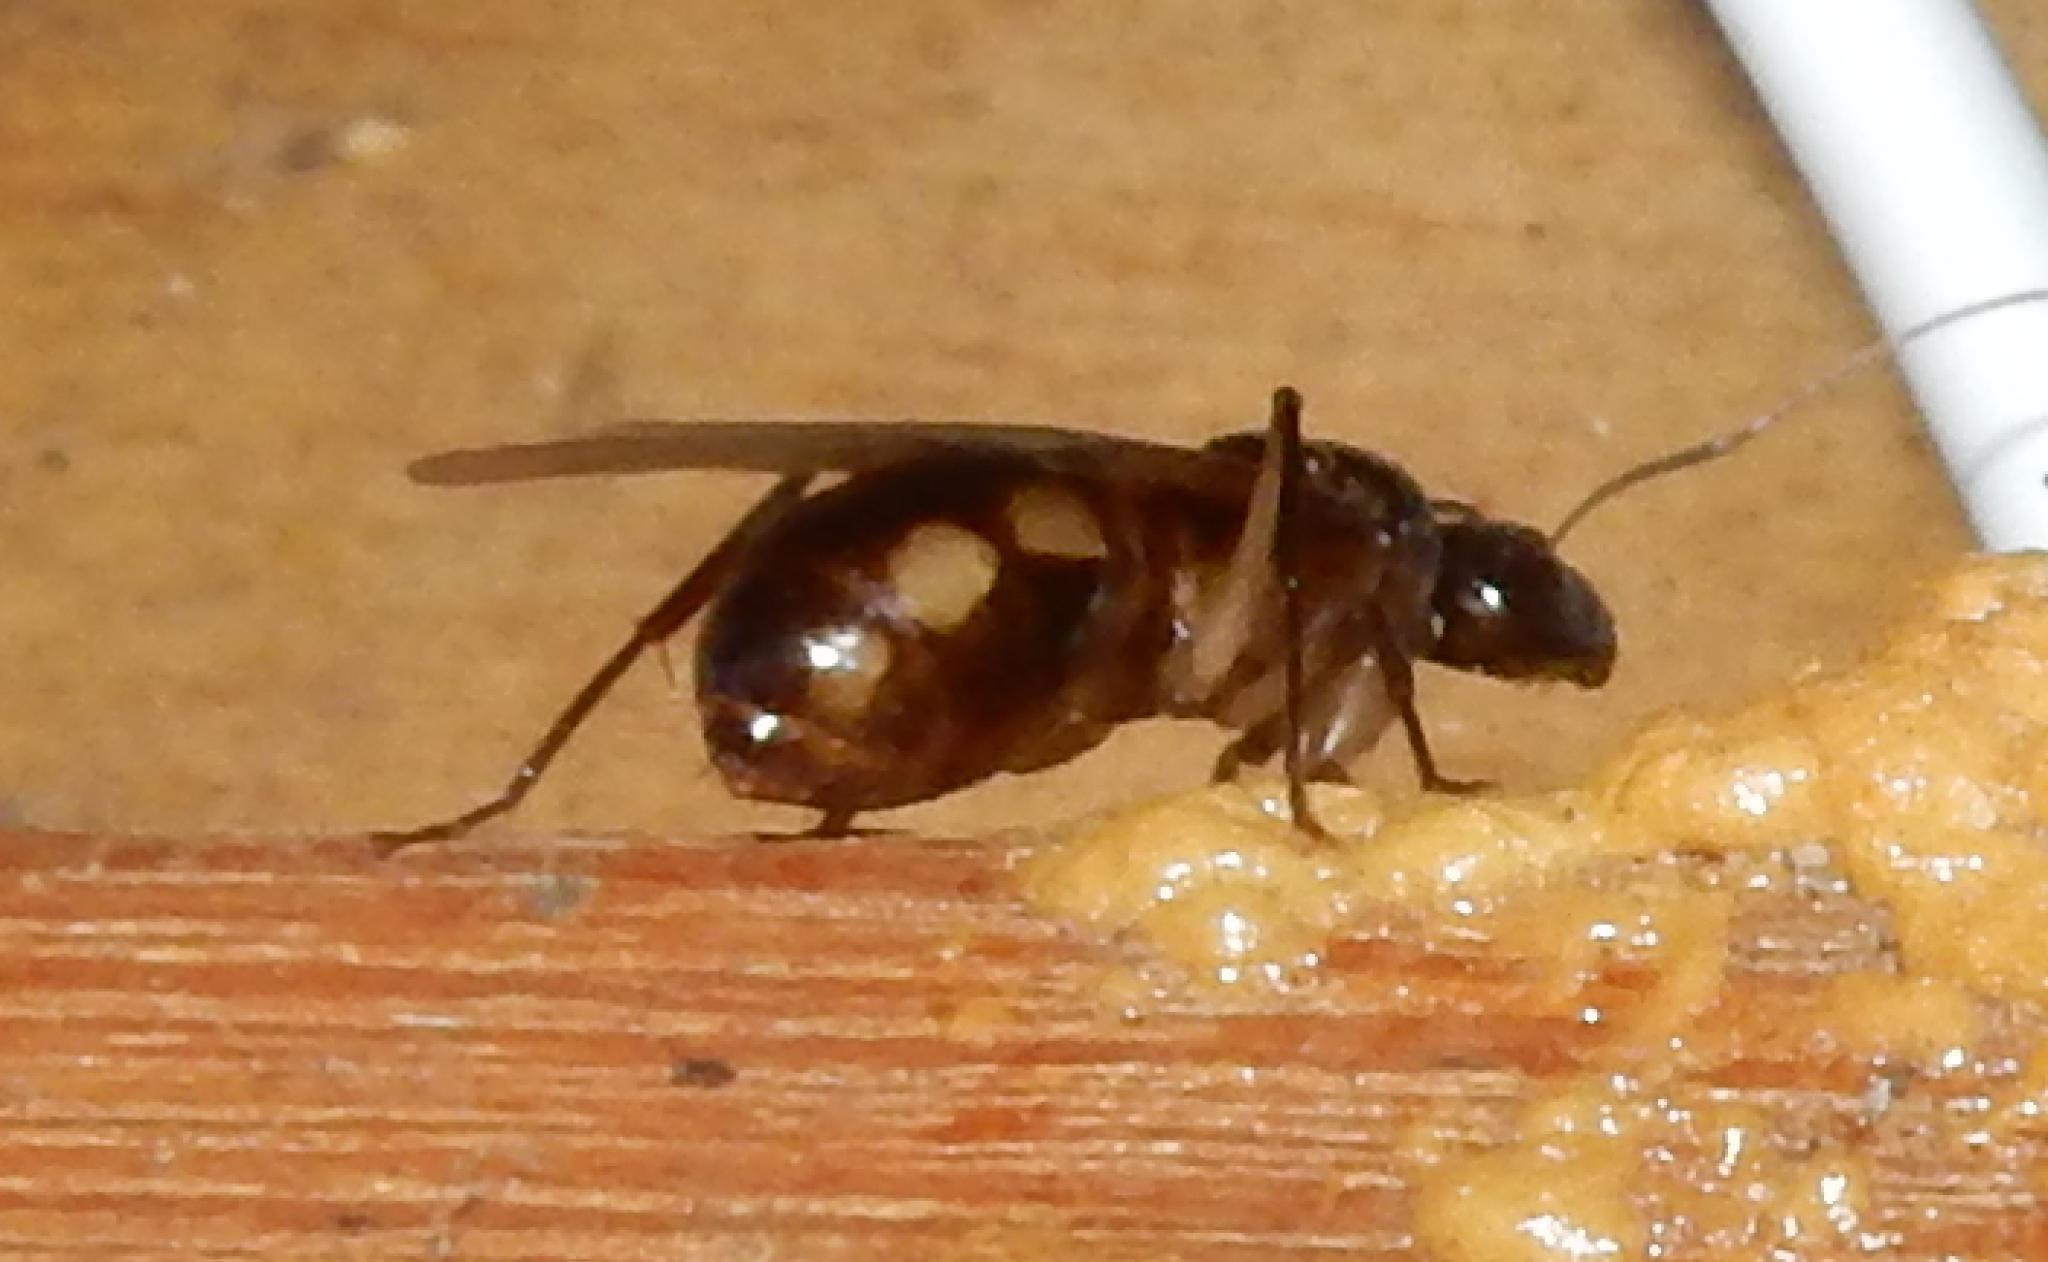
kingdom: Animalia
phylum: Arthropoda
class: Insecta
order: Hymenoptera
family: Formicidae
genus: Camponotus
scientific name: Camponotus maculatus
